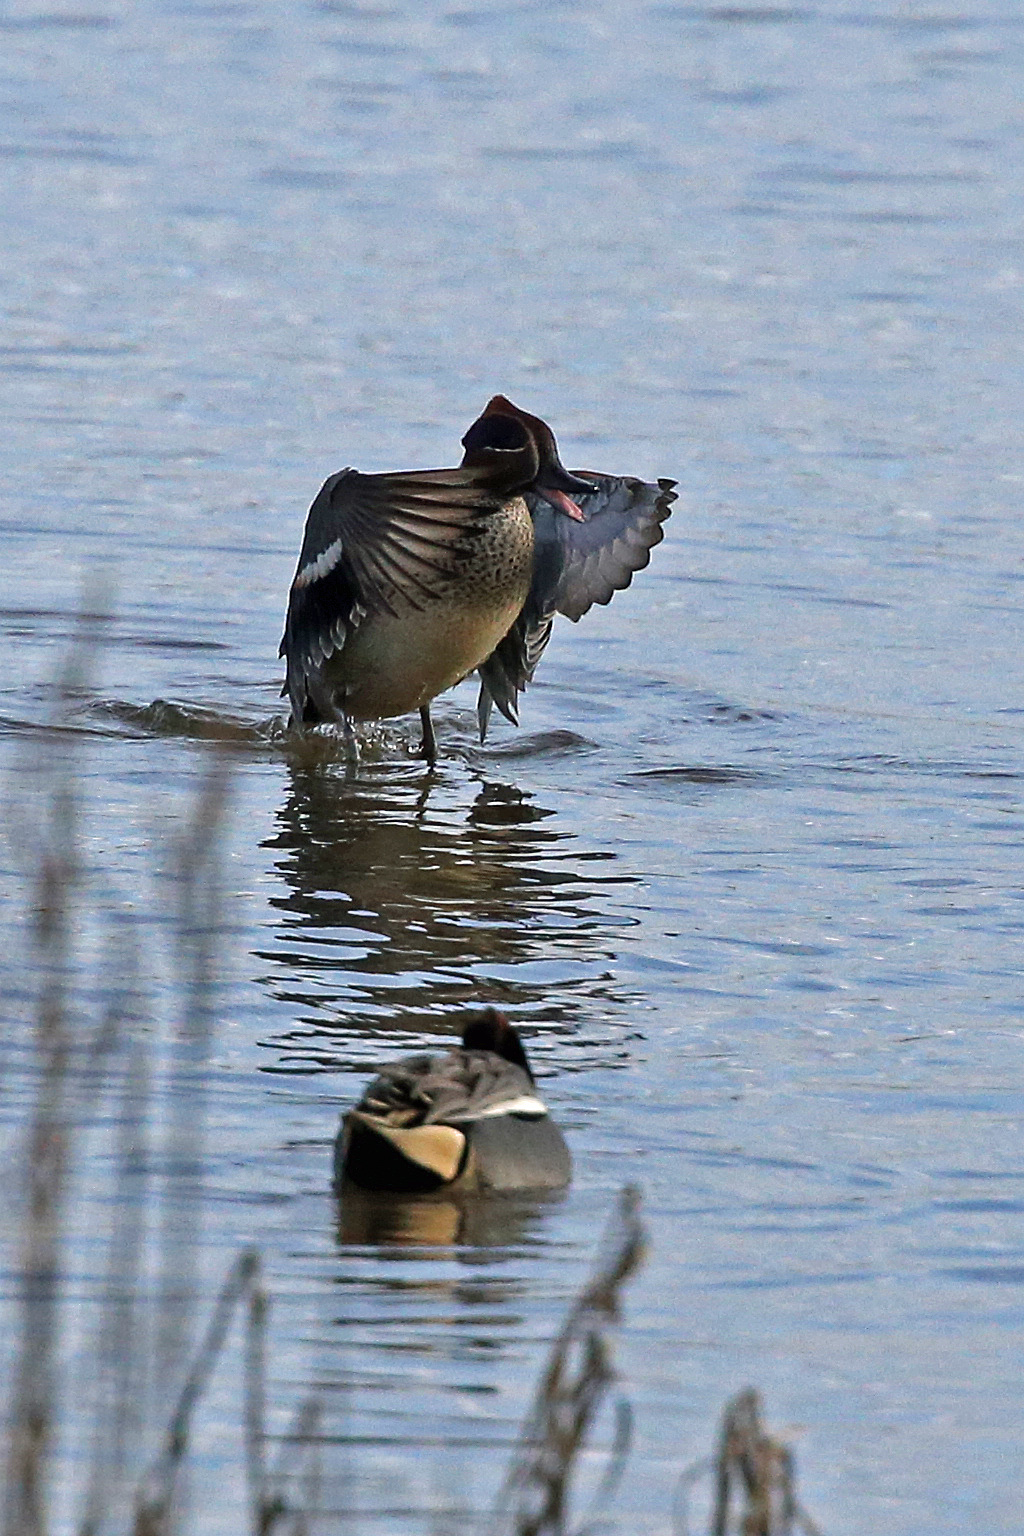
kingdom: Animalia
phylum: Chordata
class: Aves
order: Anseriformes
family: Anatidae
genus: Anas
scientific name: Anas crecca
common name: Eurasian teal
